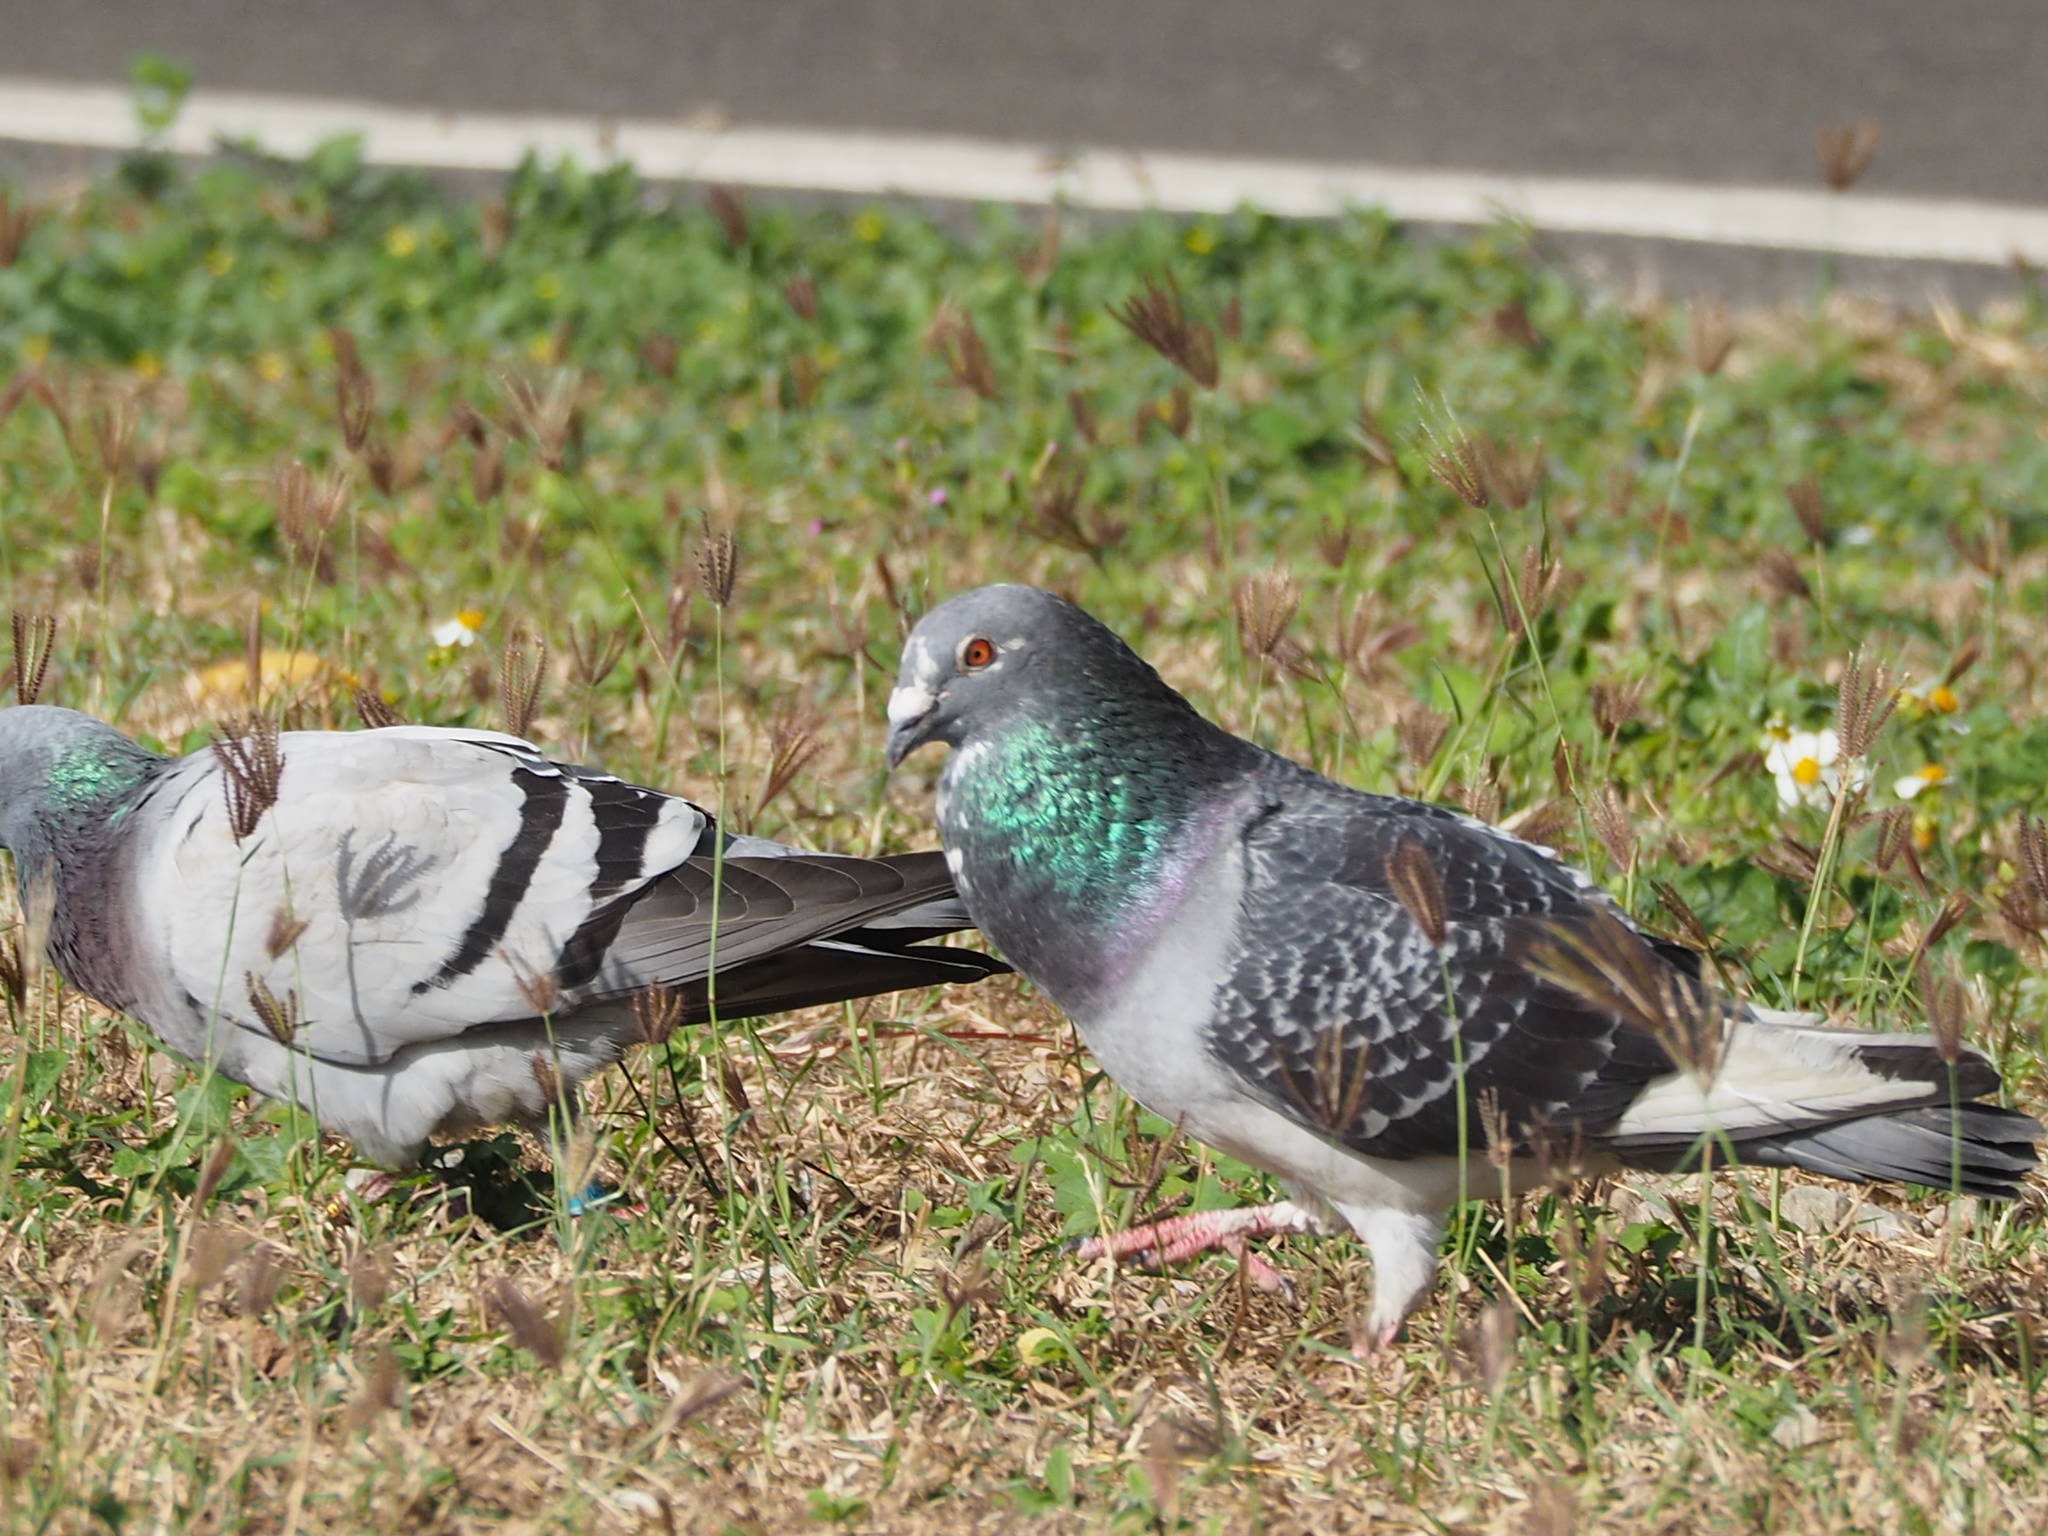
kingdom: Animalia
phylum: Chordata
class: Aves
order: Columbiformes
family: Columbidae
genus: Columba
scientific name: Columba livia
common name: Rock pigeon
